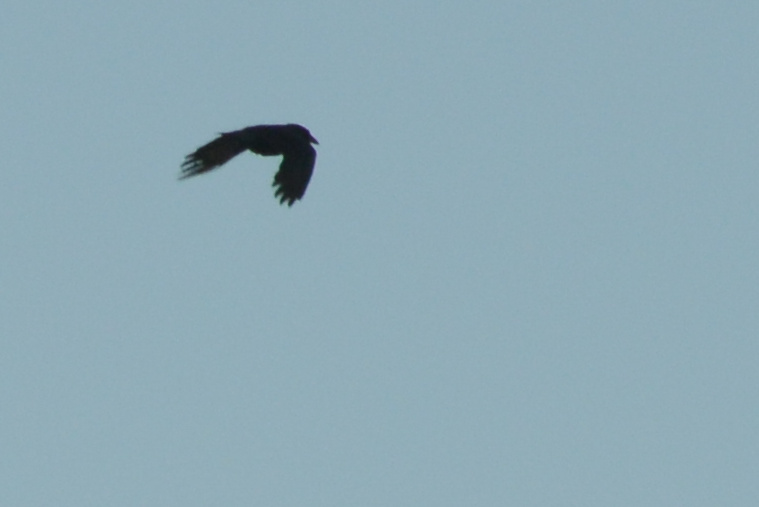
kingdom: Animalia
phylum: Chordata
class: Aves
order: Passeriformes
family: Corvidae
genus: Corvus
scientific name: Corvus brachyrhynchos
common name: American crow
